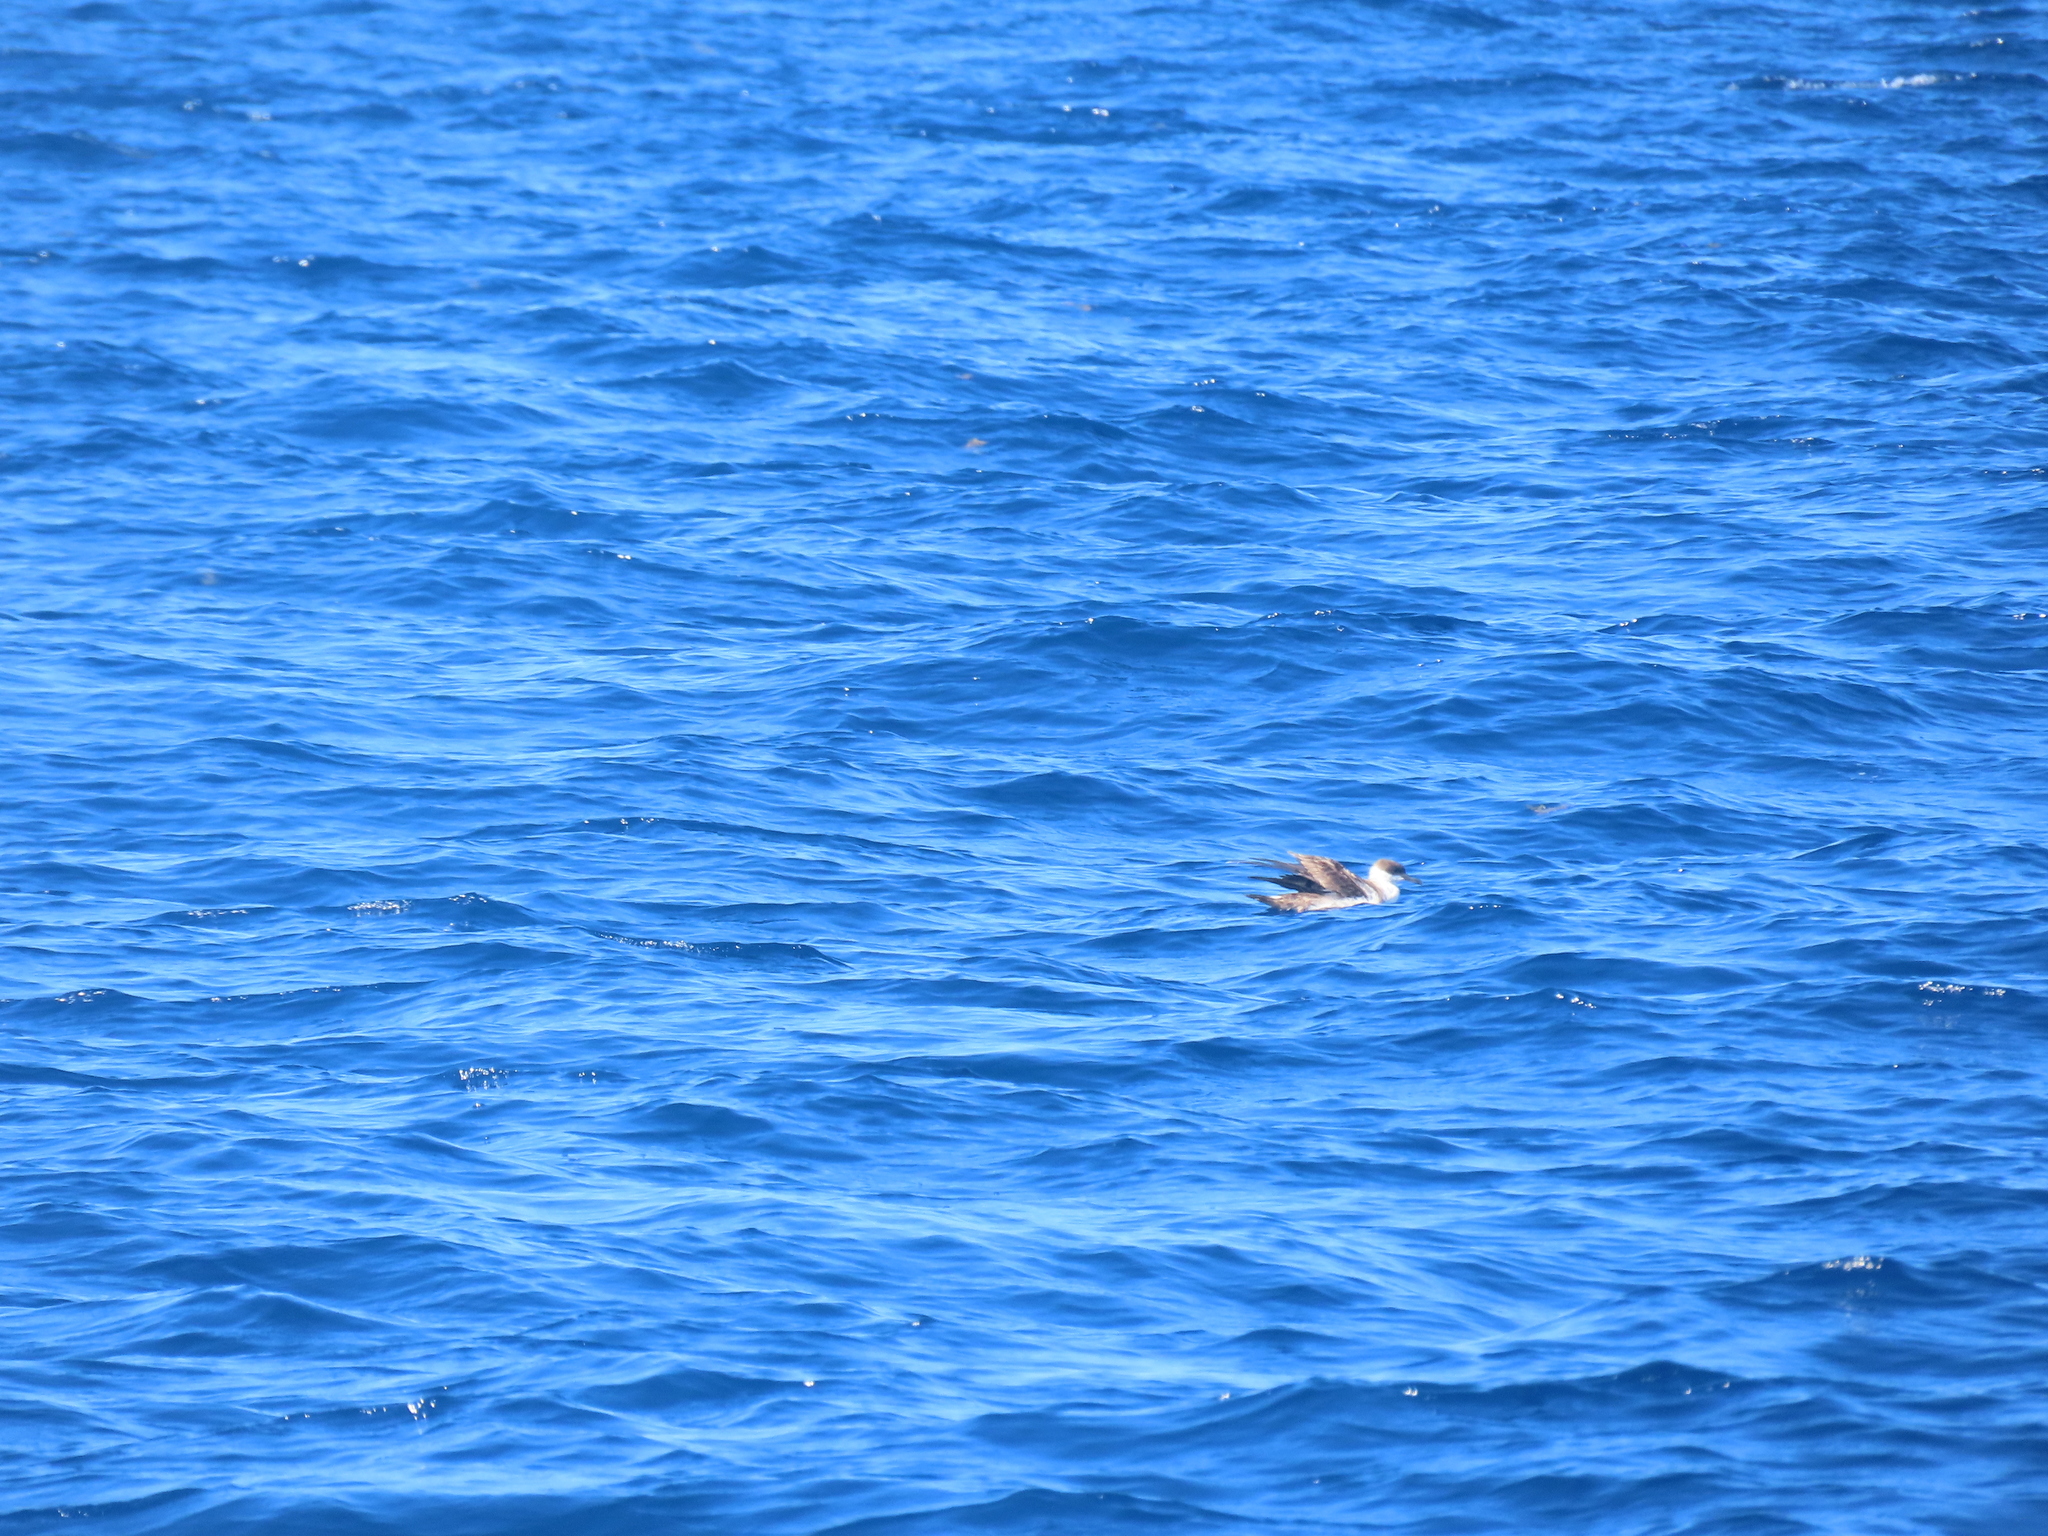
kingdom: Animalia
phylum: Chordata
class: Aves
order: Procellariiformes
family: Procellariidae
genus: Puffinus
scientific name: Puffinus gravis
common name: Great shearwater
